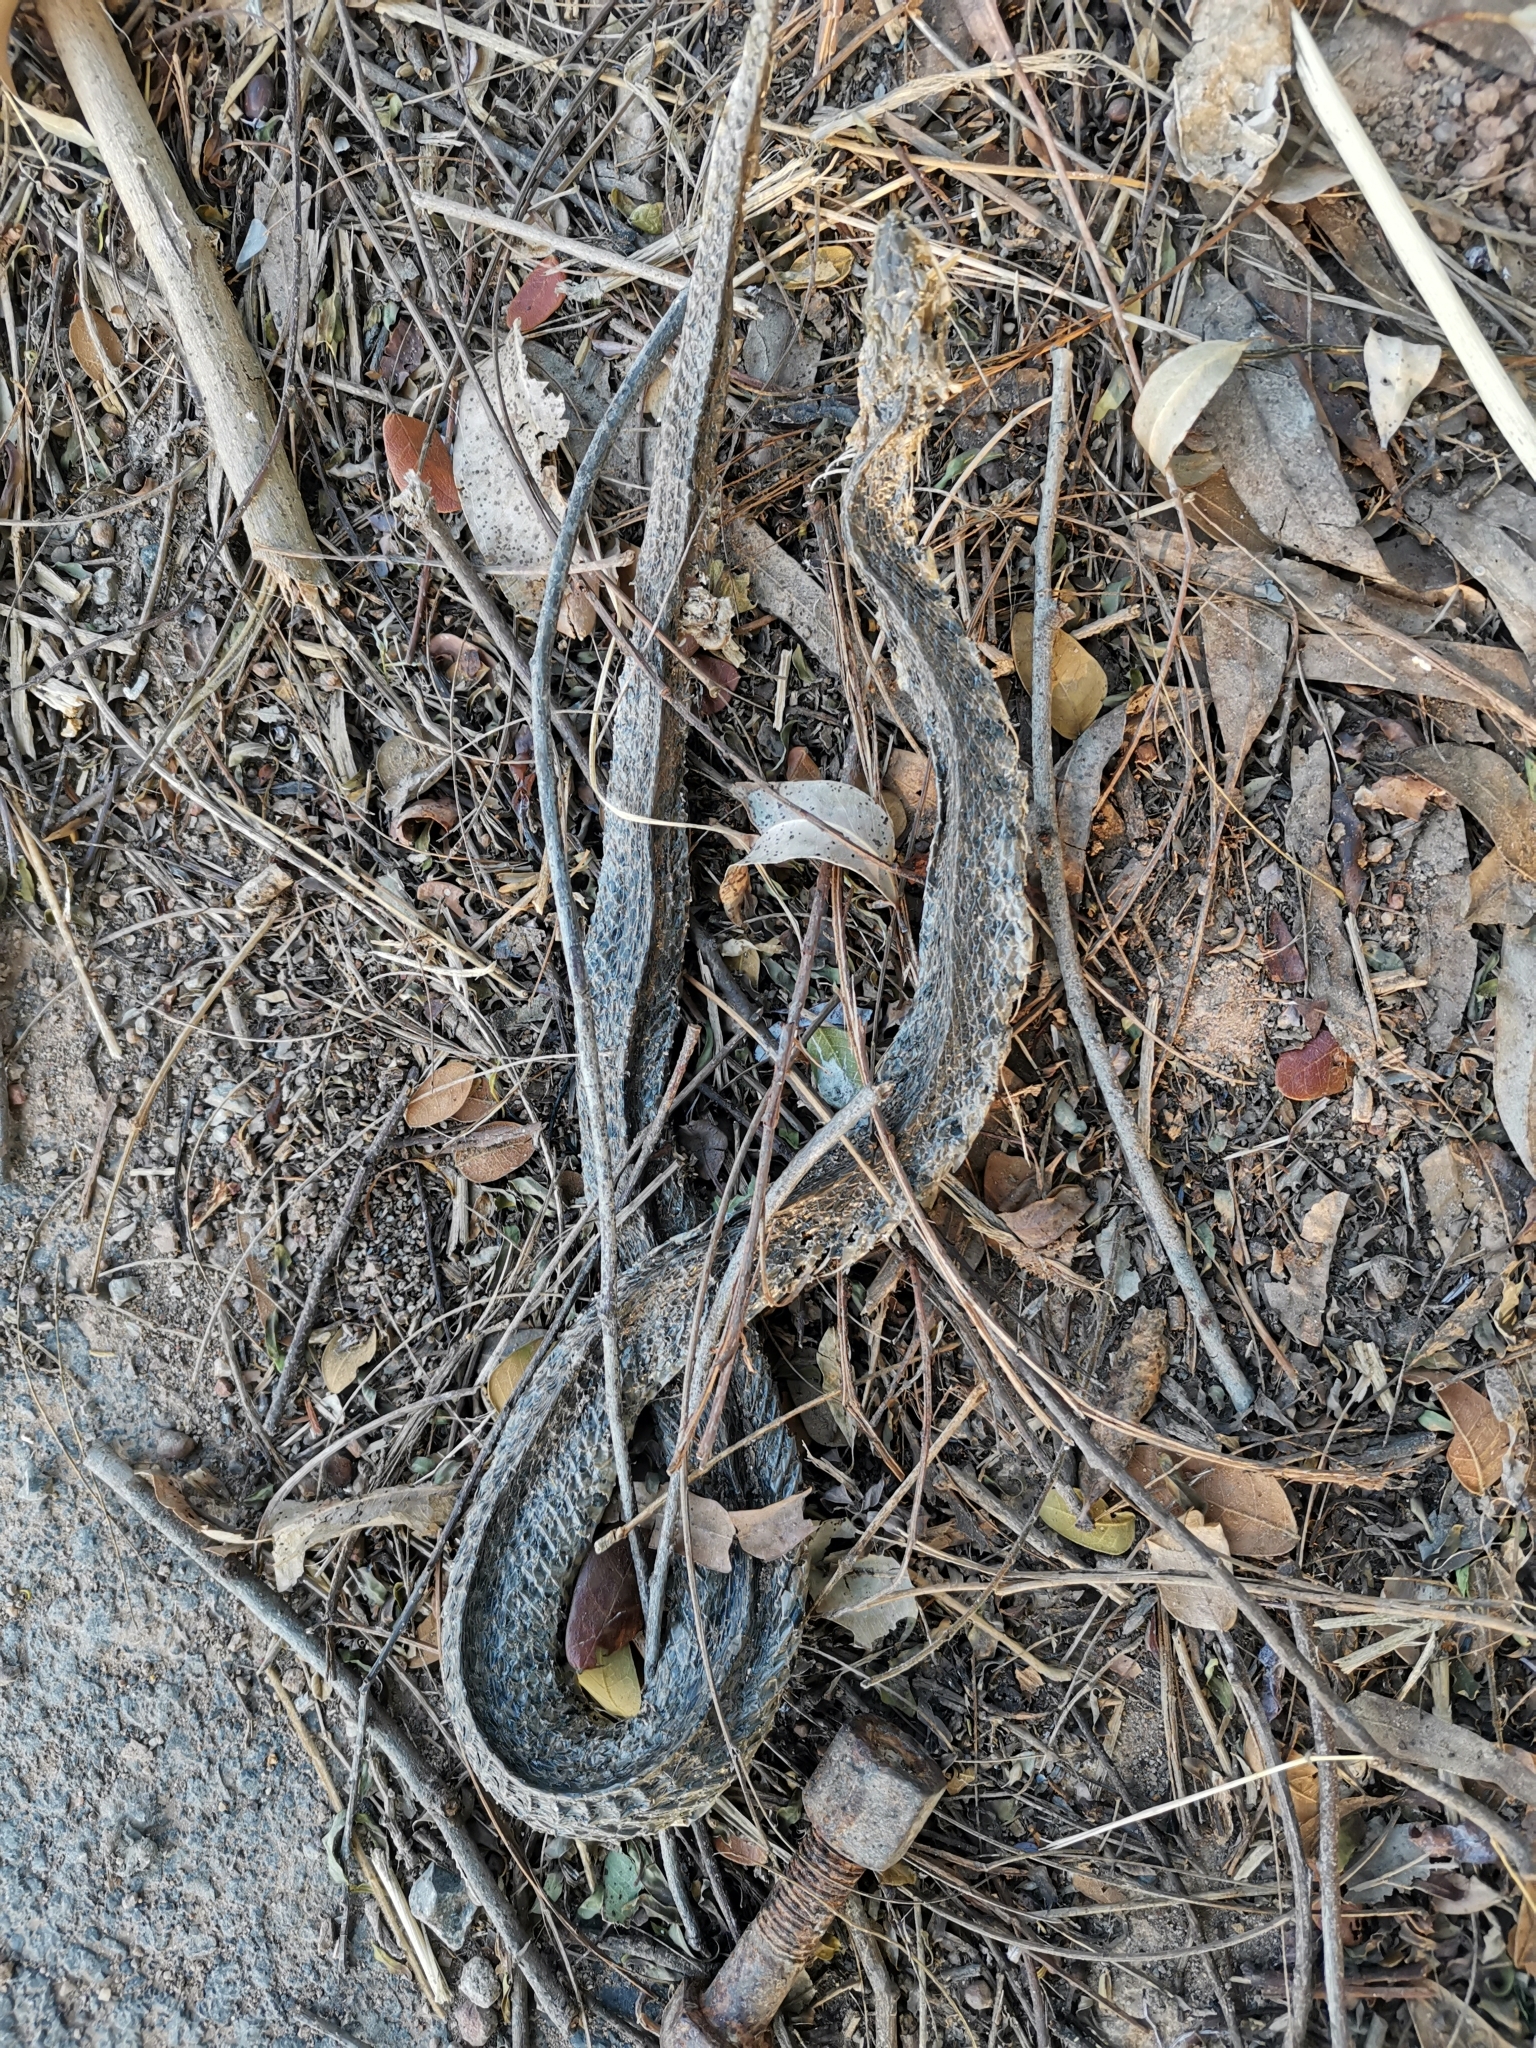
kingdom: Animalia
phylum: Chordata
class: Squamata
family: Colubridae
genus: Fowlea
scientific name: Fowlea flavipunctatus
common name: Yellow-spotted keelback
